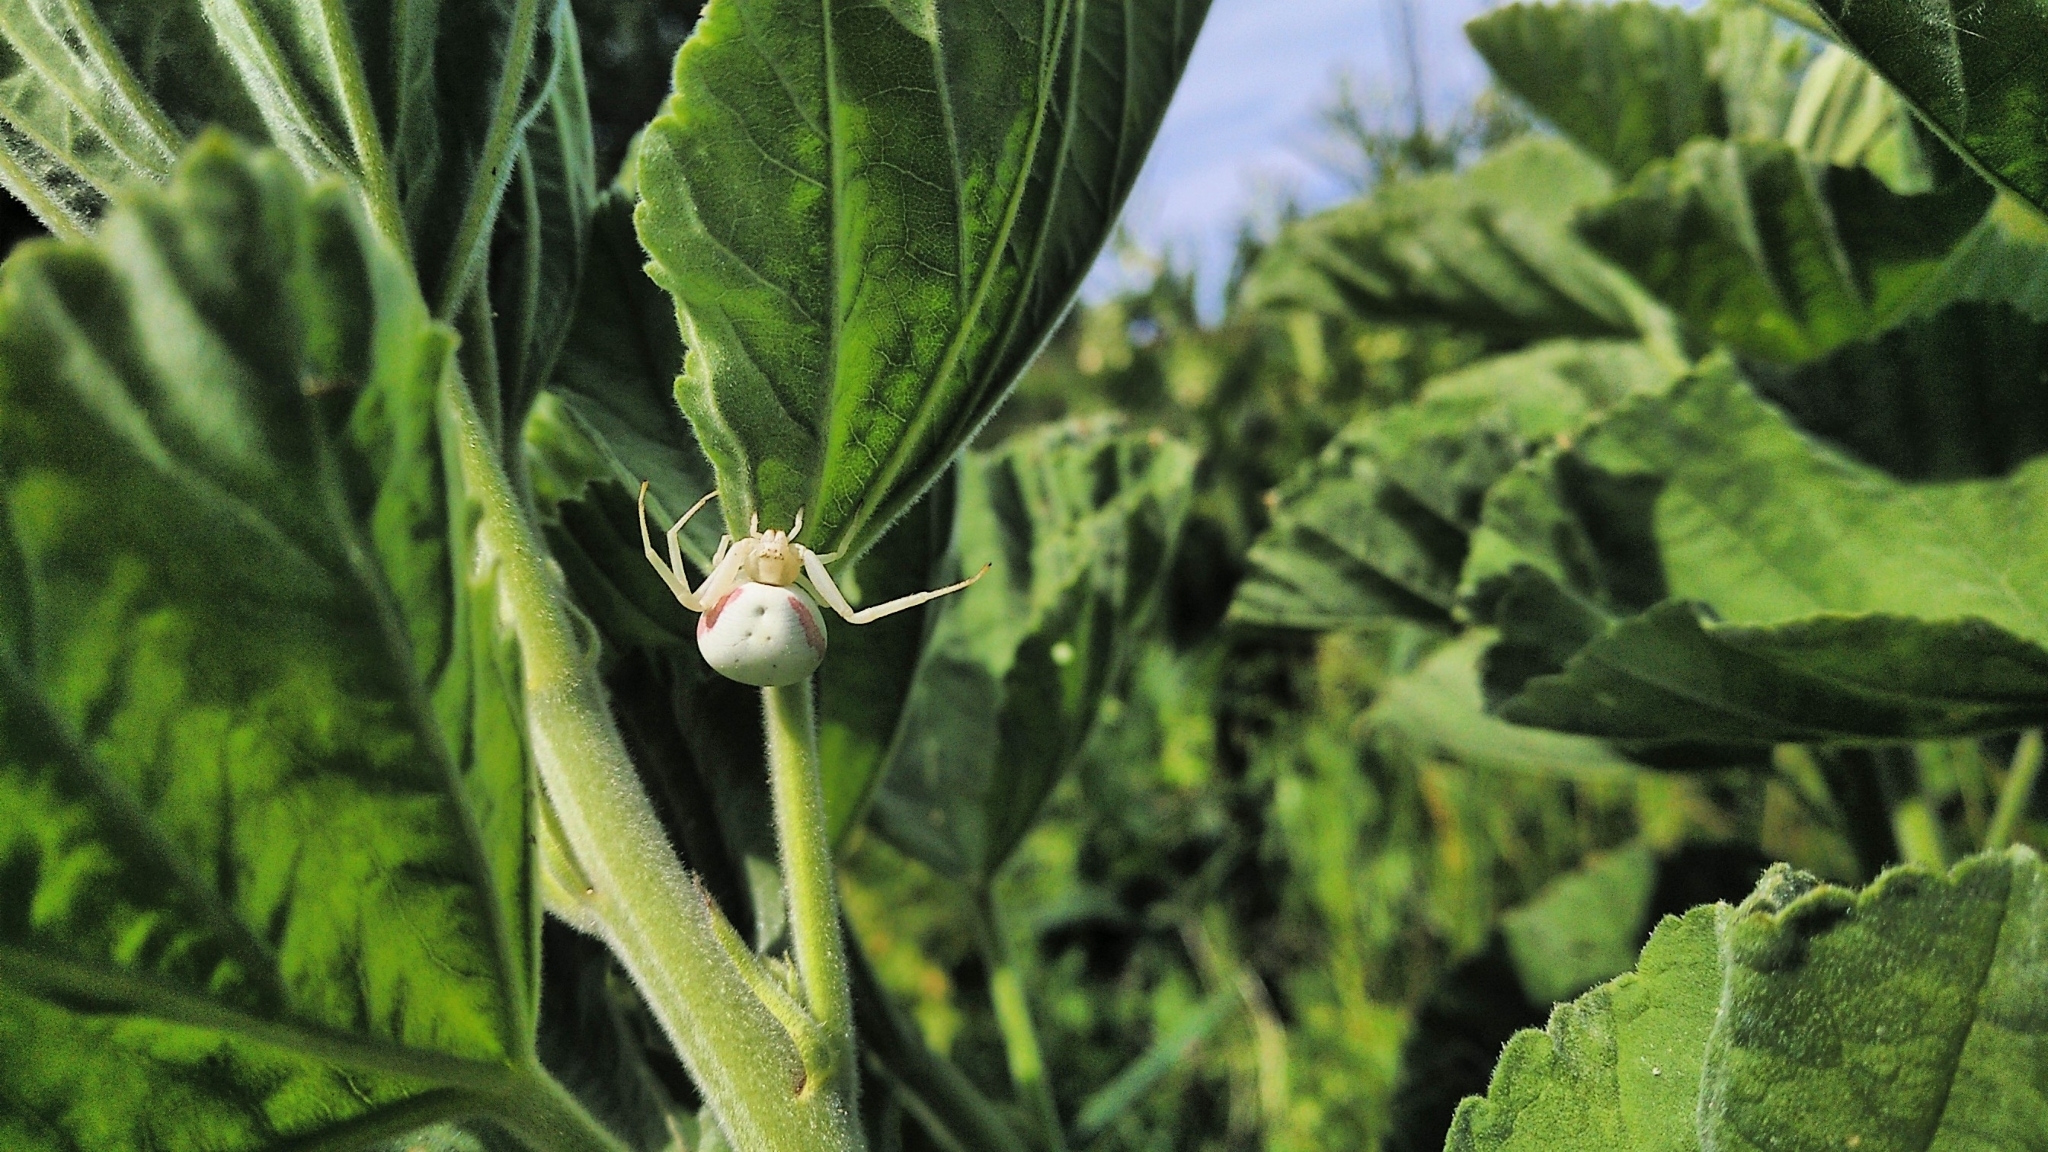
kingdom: Animalia
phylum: Arthropoda
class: Arachnida
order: Araneae
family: Thomisidae
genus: Misumena
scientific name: Misumena vatia
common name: Goldenrod crab spider
